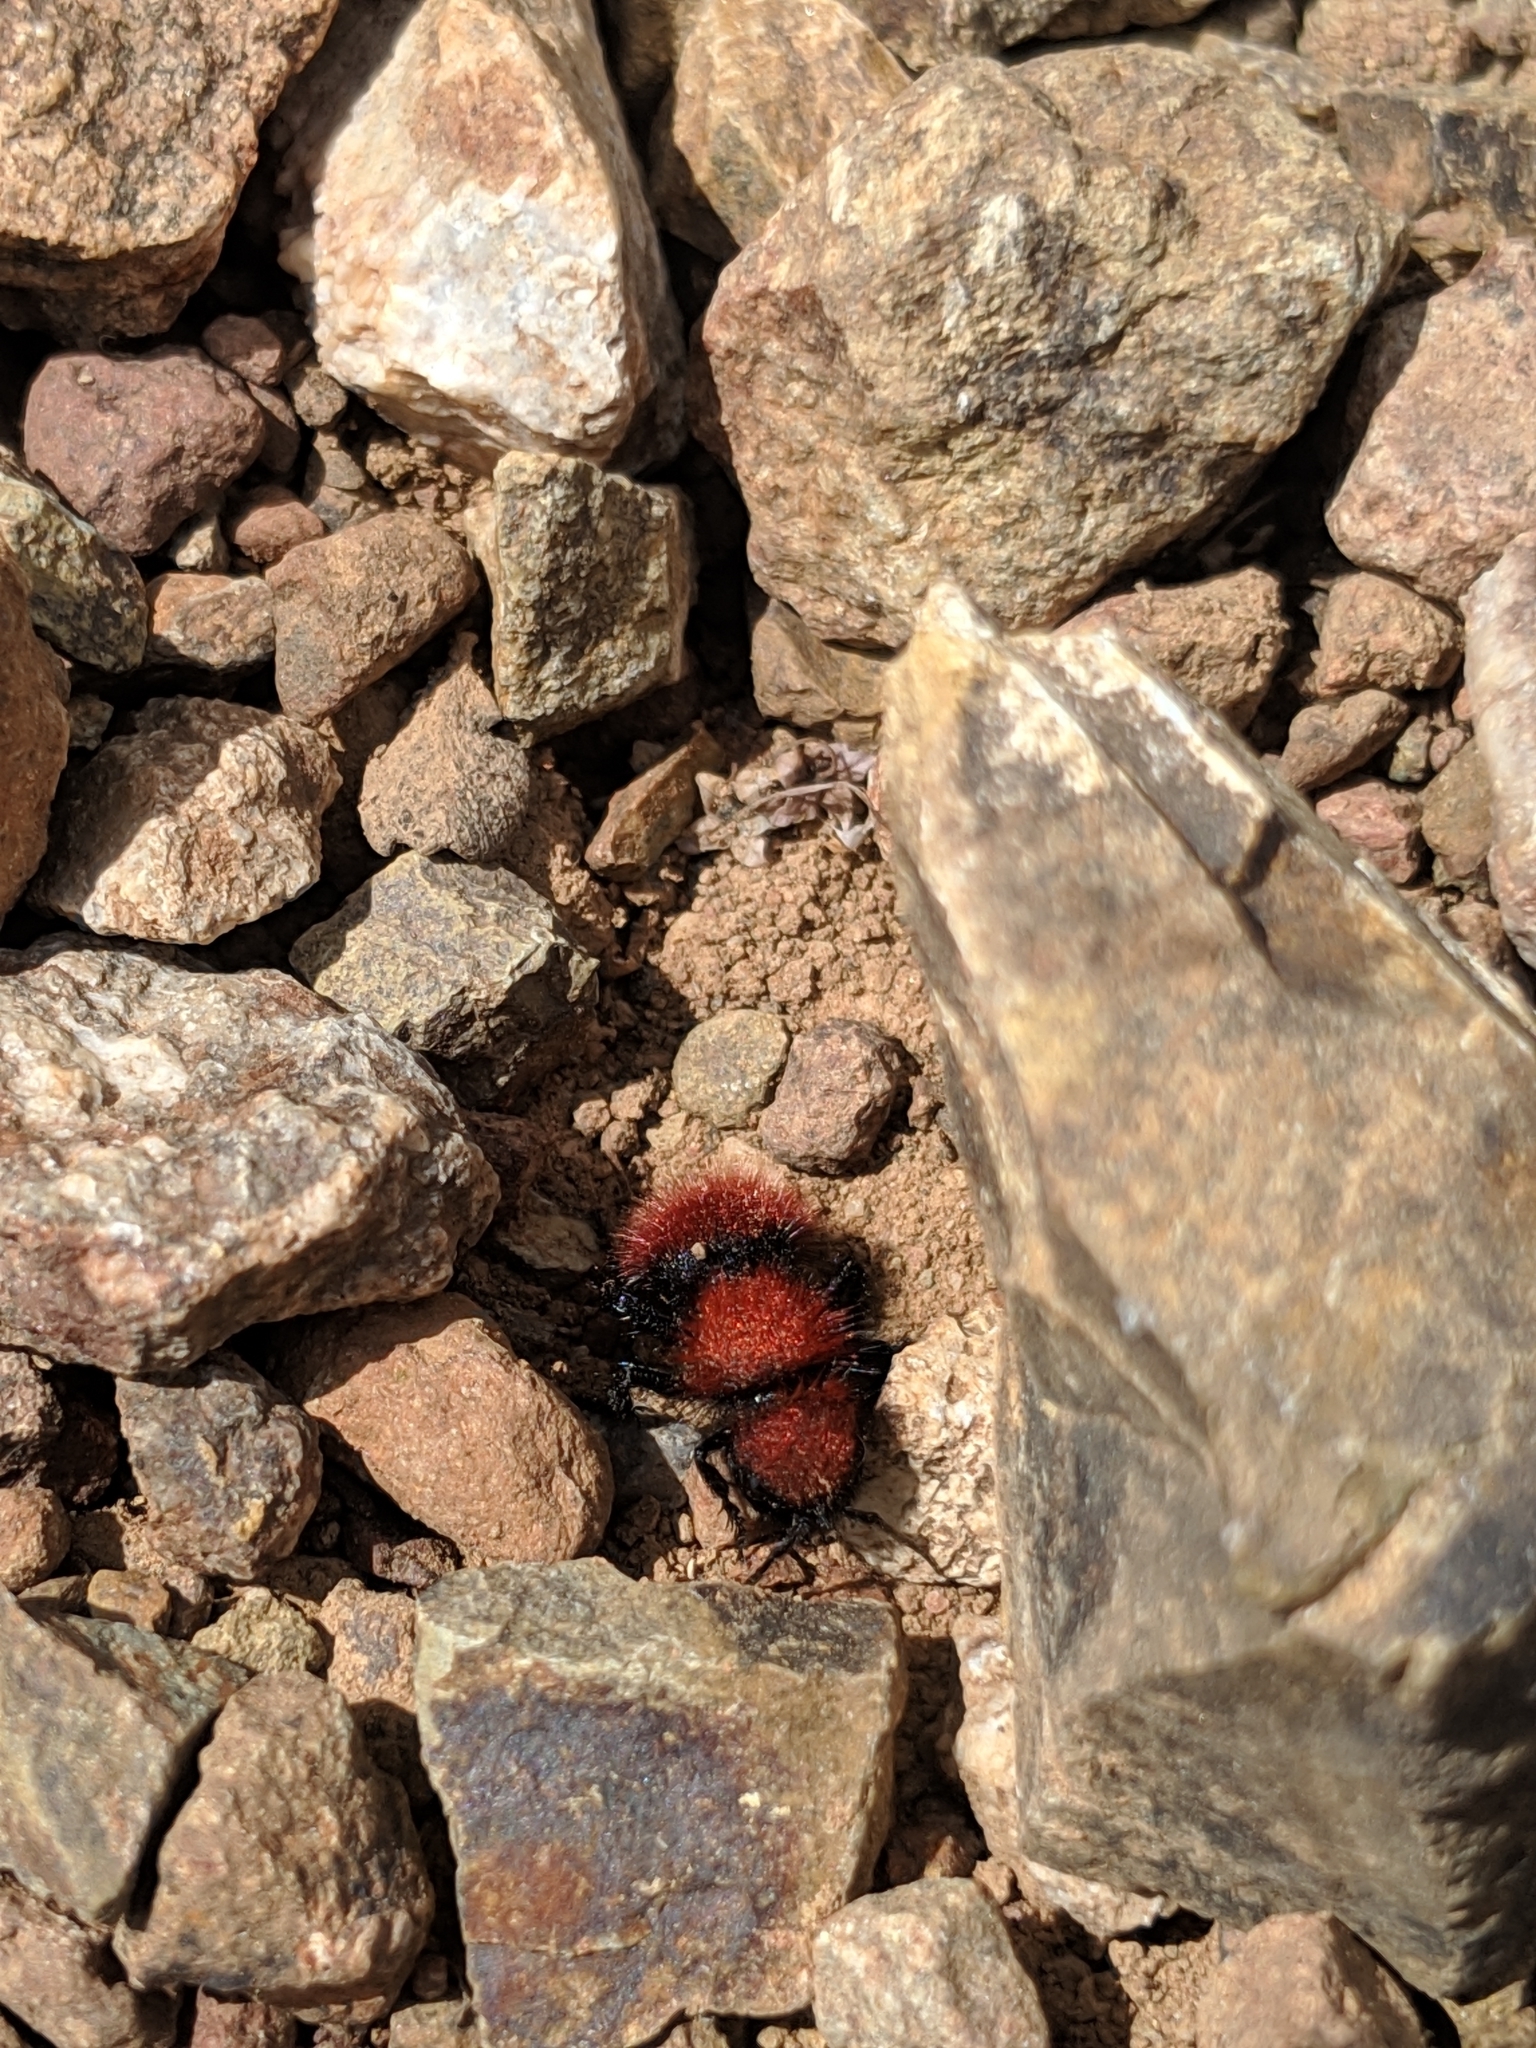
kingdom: Animalia
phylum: Arthropoda
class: Insecta
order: Hymenoptera
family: Mutillidae
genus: Dasymutilla
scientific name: Dasymutilla
